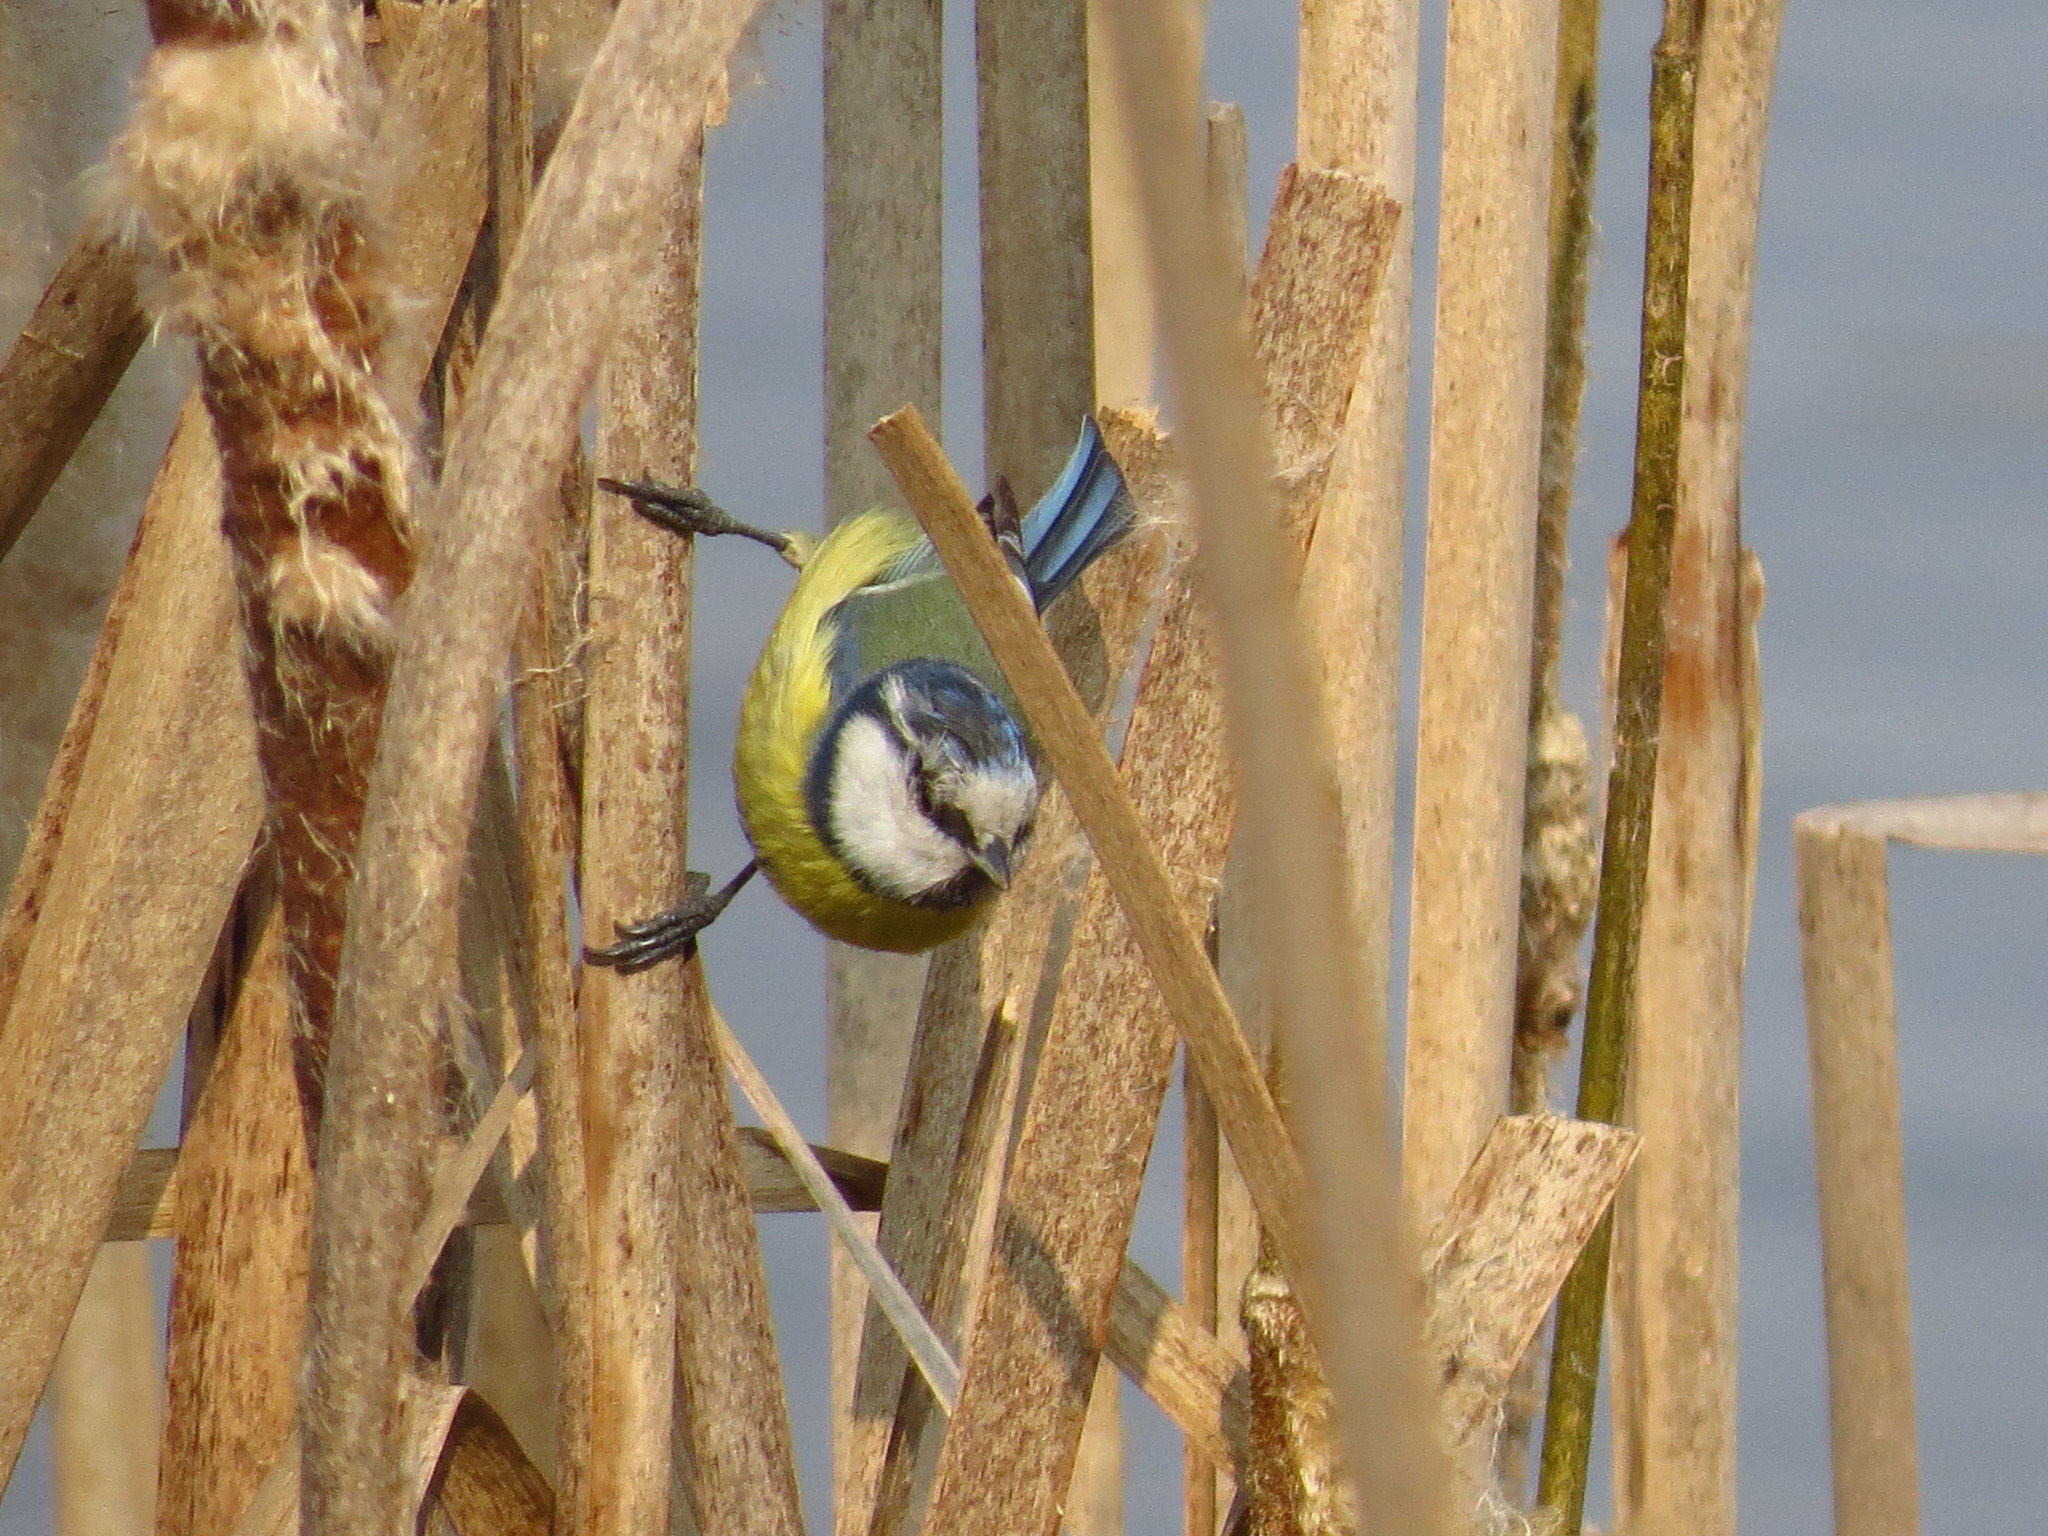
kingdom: Animalia
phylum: Chordata
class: Aves
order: Passeriformes
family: Paridae
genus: Cyanistes
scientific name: Cyanistes caeruleus
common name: Eurasian blue tit
